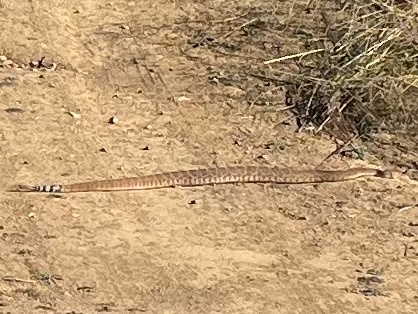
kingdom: Animalia
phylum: Chordata
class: Squamata
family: Viperidae
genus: Crotalus
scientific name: Crotalus ruber
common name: Red diamond rattlesnake
